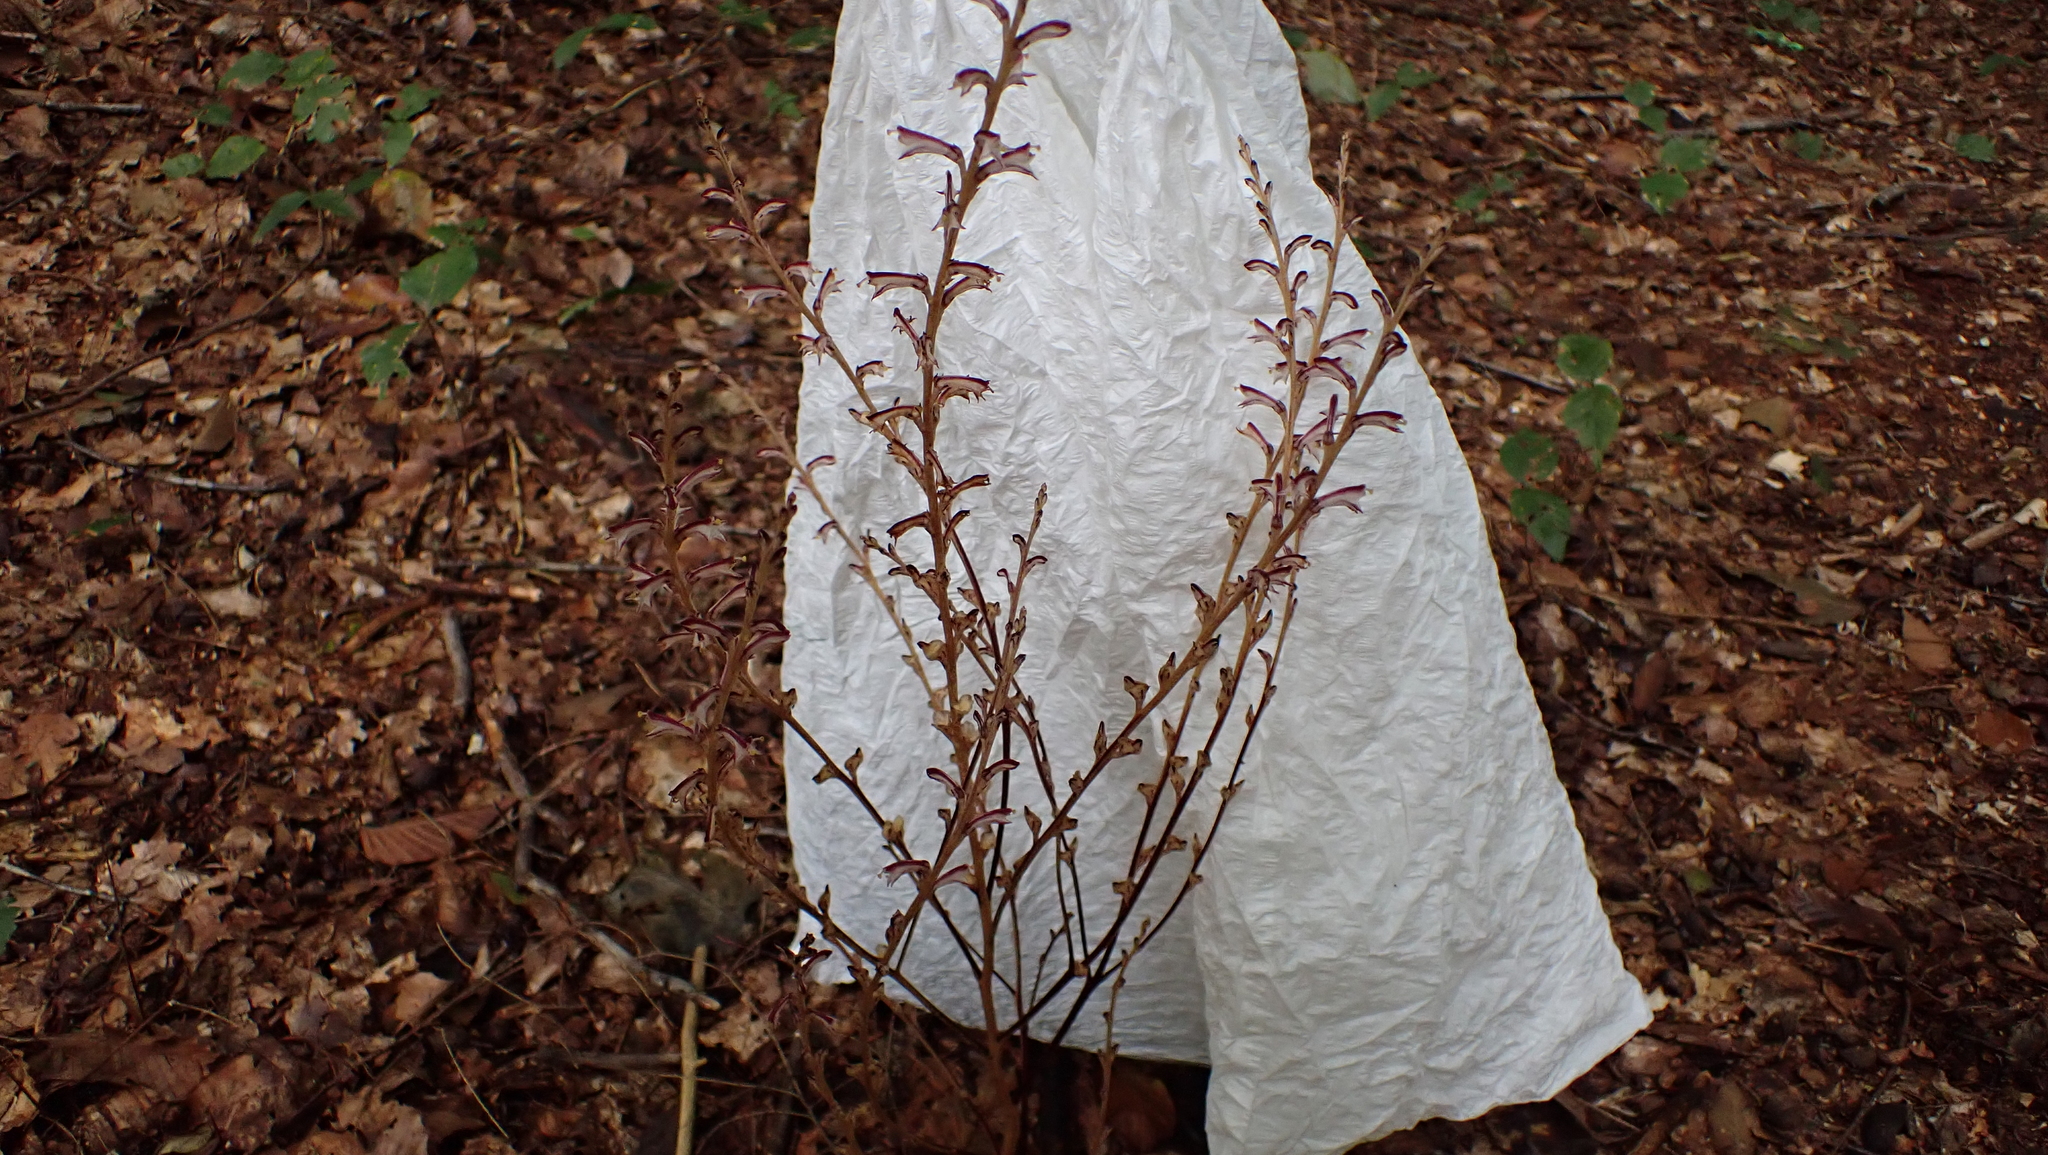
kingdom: Plantae
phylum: Tracheophyta
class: Magnoliopsida
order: Lamiales
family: Orobanchaceae
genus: Epifagus
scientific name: Epifagus virginiana
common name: Beechdrops
